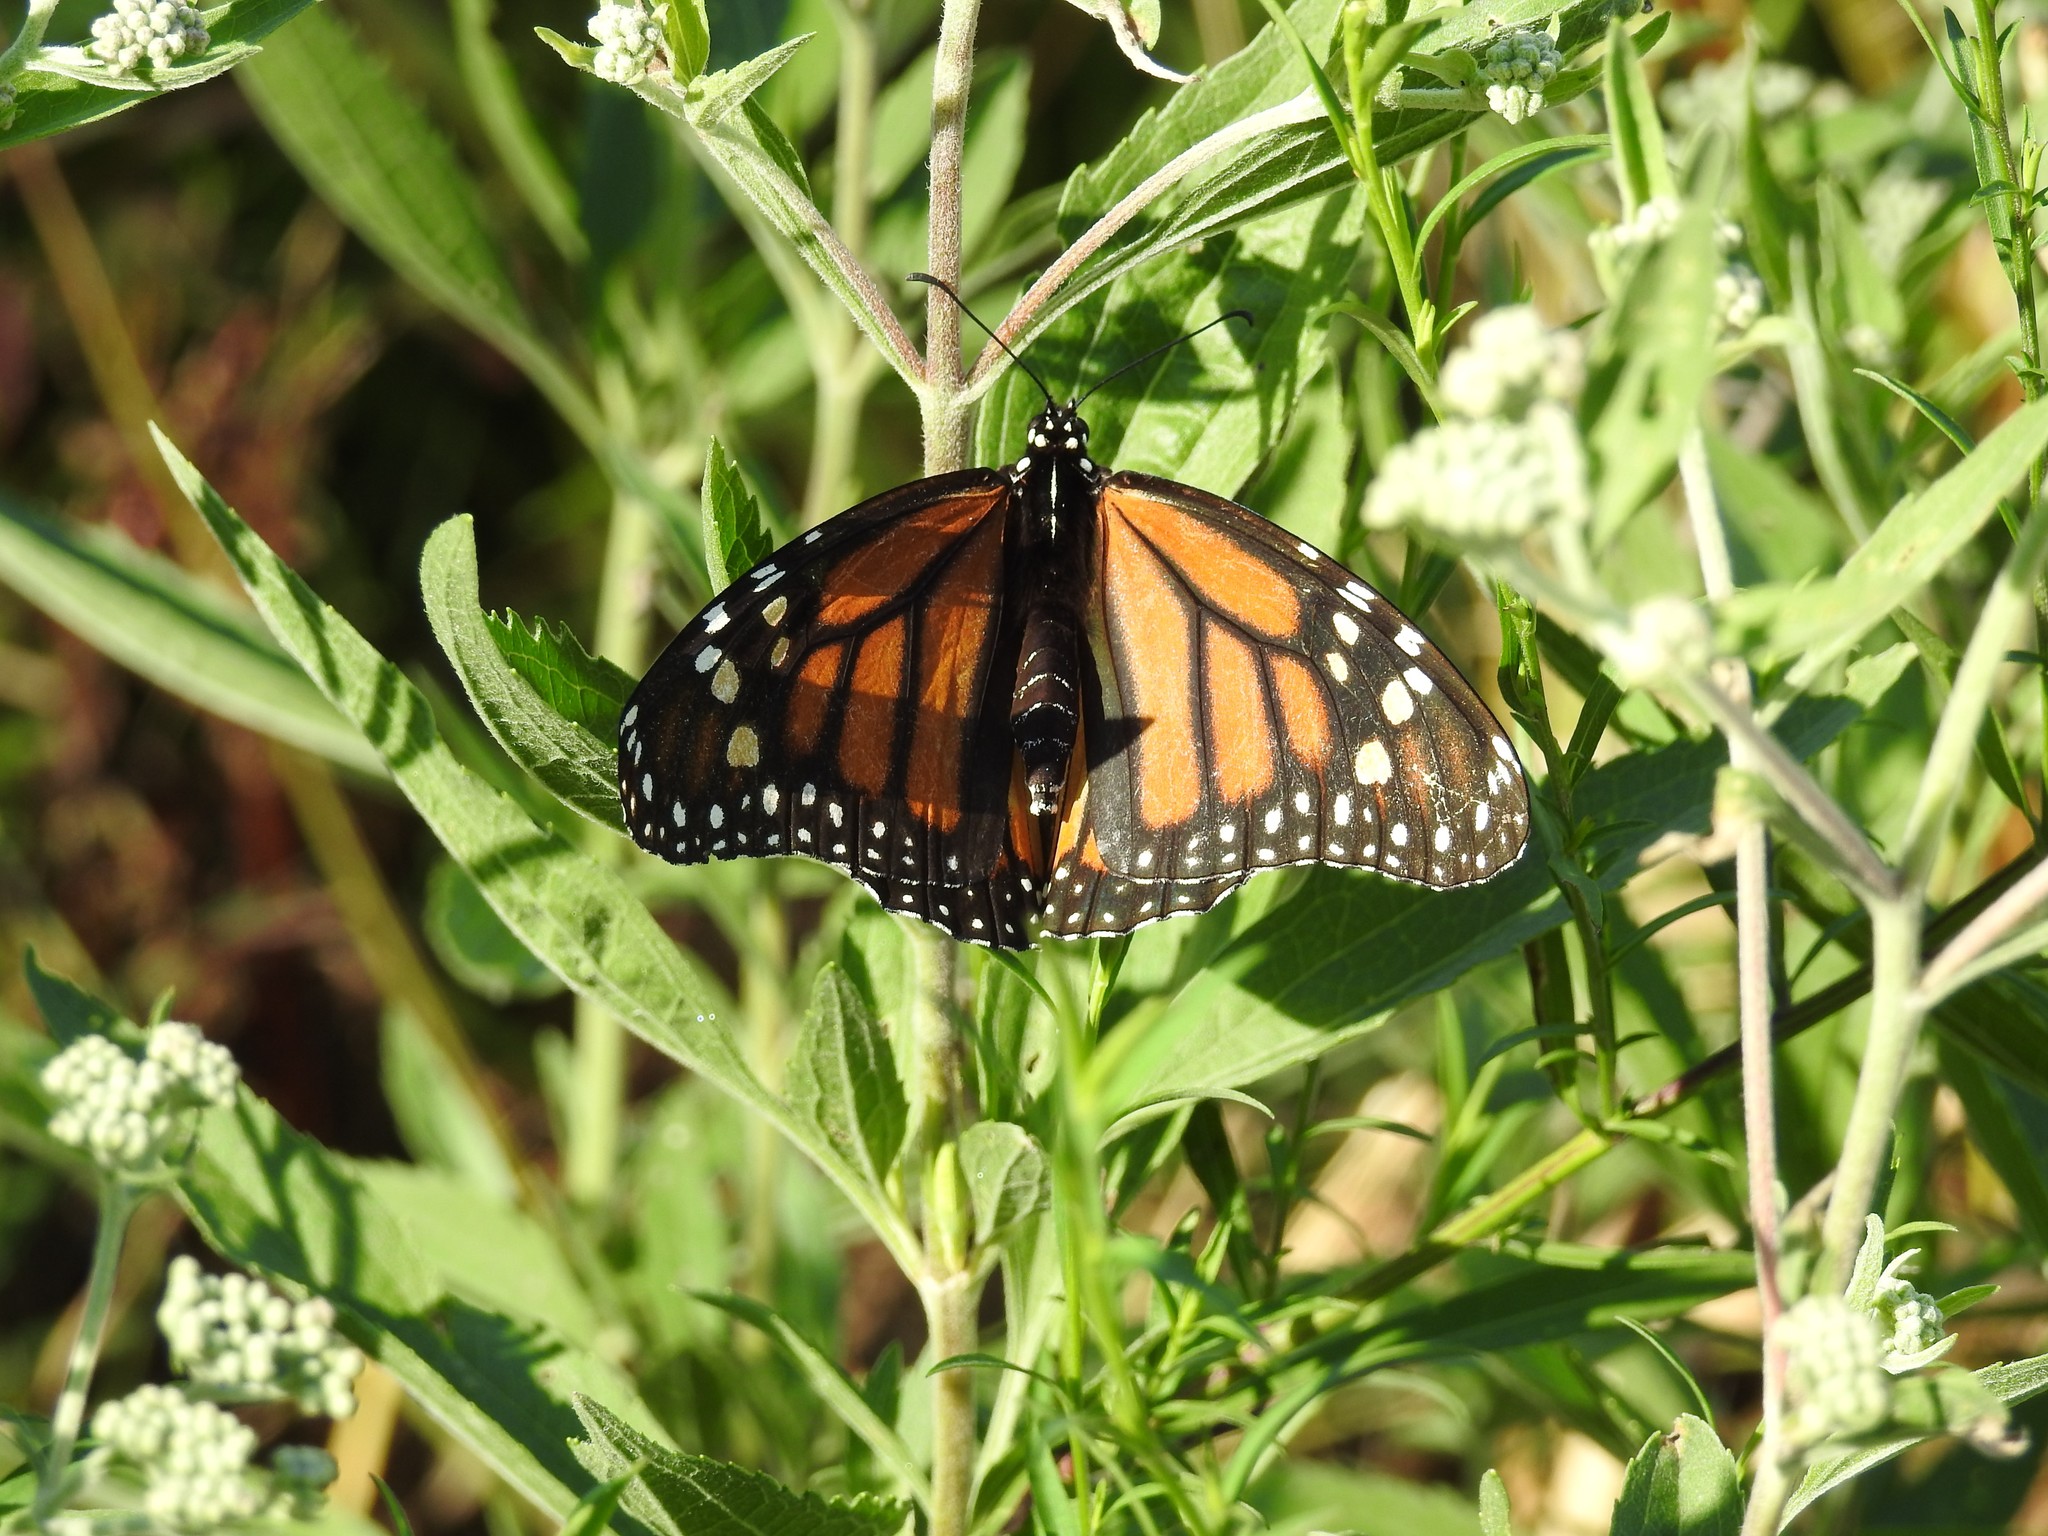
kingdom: Animalia
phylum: Arthropoda
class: Insecta
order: Lepidoptera
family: Nymphalidae
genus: Danaus
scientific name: Danaus plexippus
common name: Monarch
